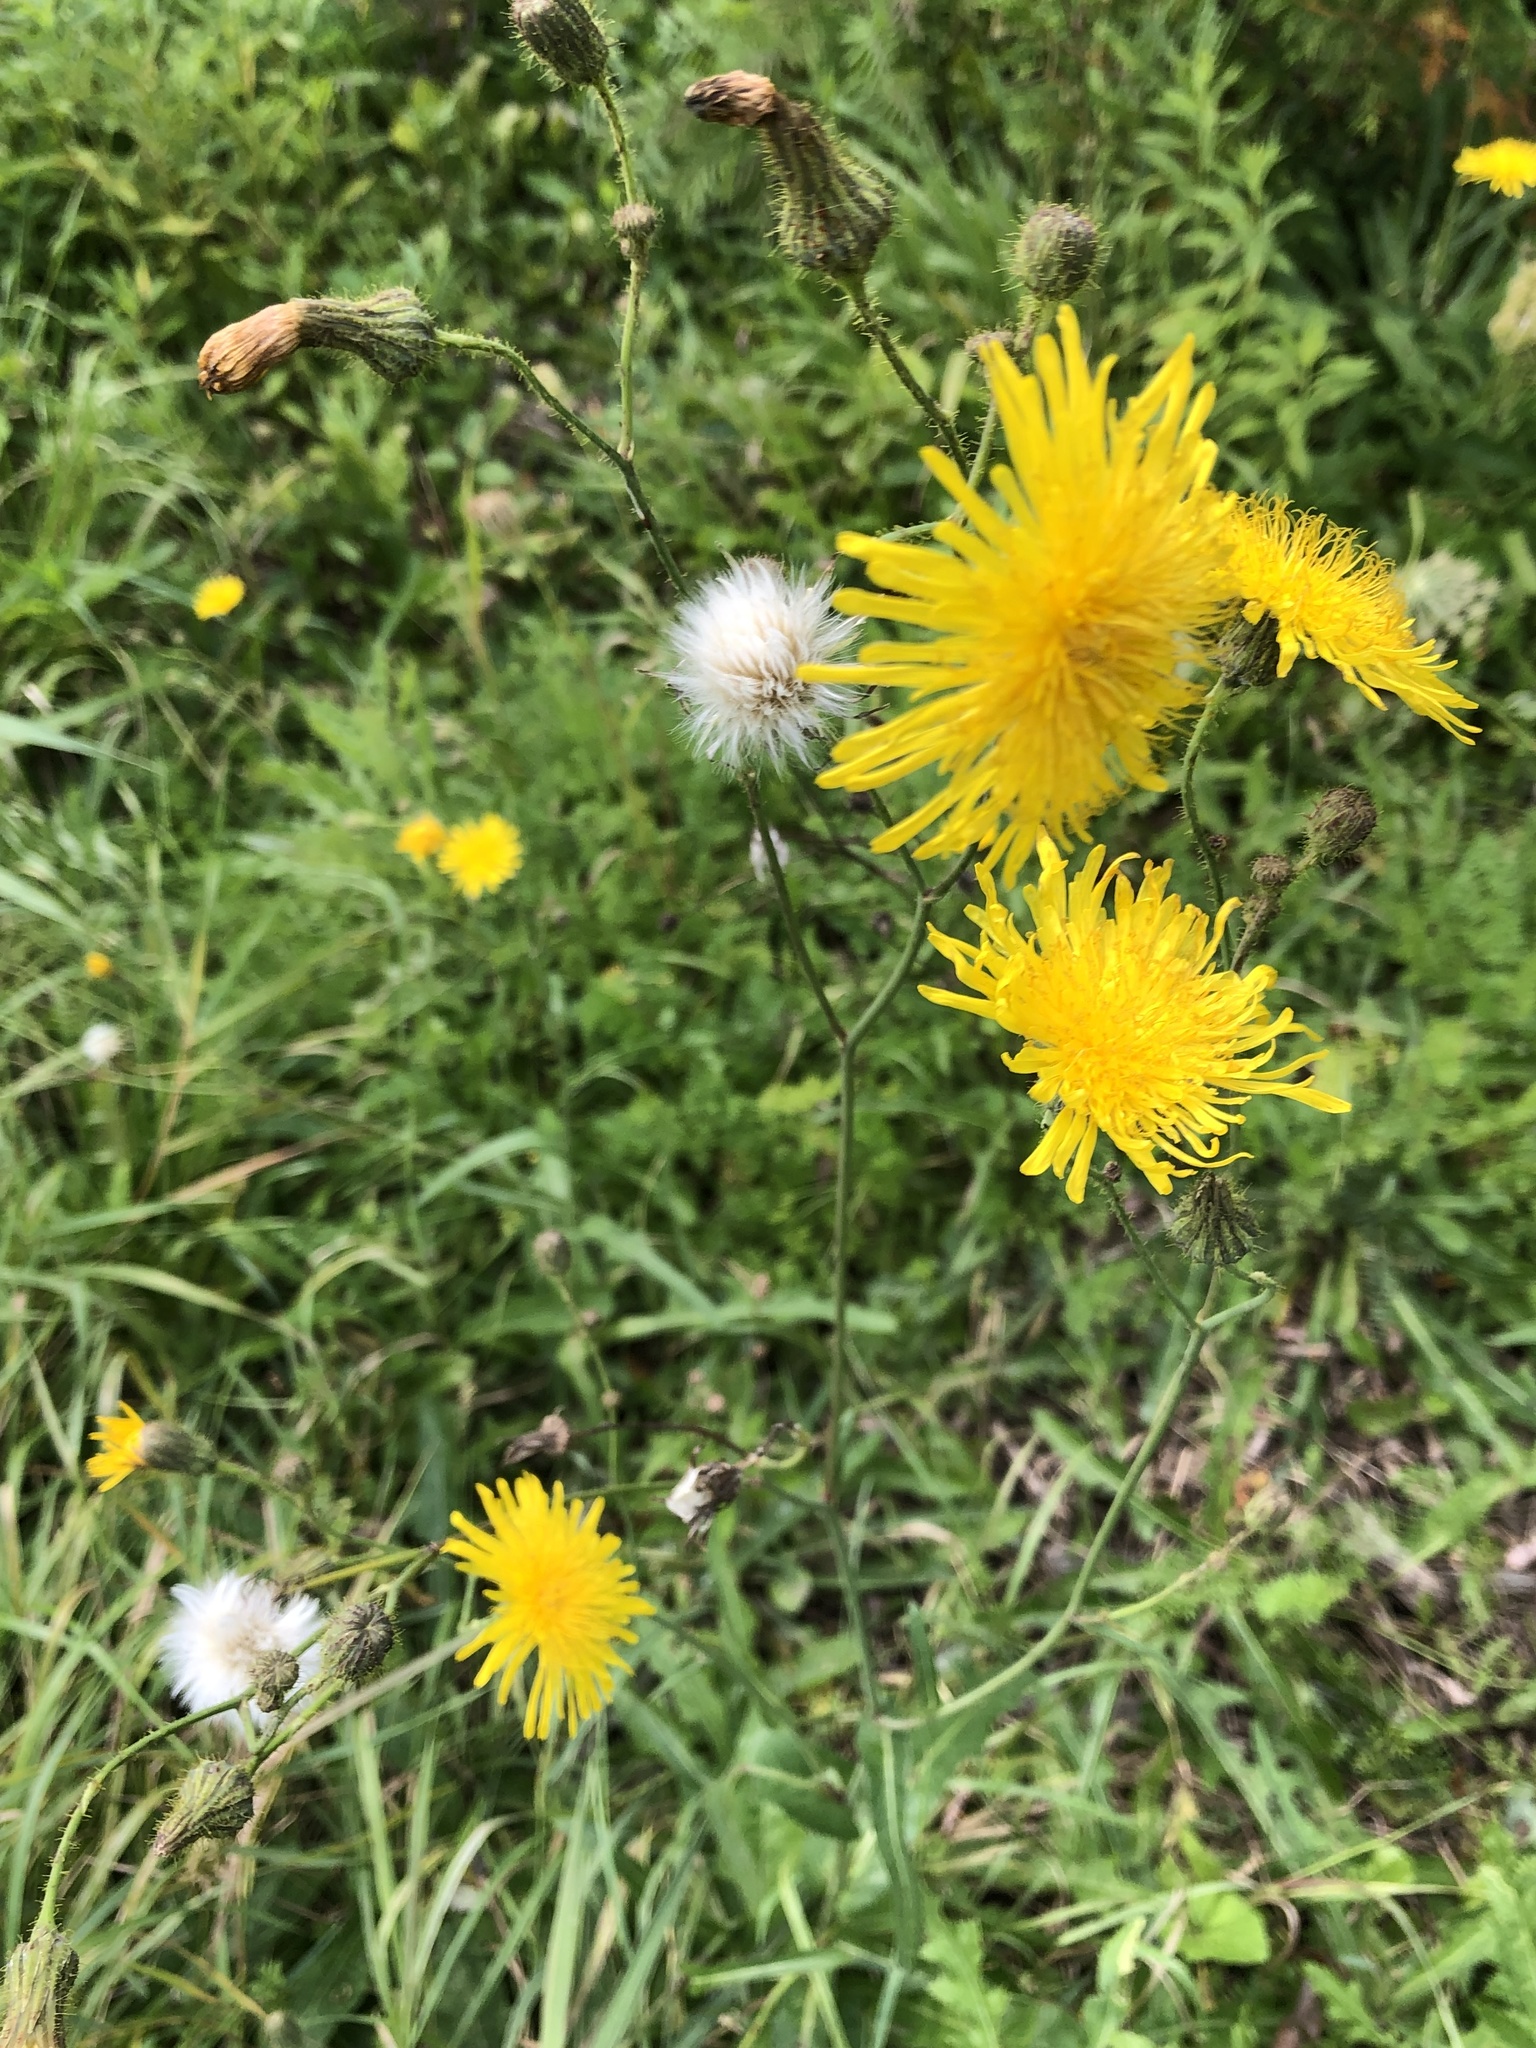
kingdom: Plantae
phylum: Tracheophyta
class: Magnoliopsida
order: Asterales
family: Asteraceae
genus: Sonchus
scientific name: Sonchus arvensis
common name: Perennial sow-thistle
